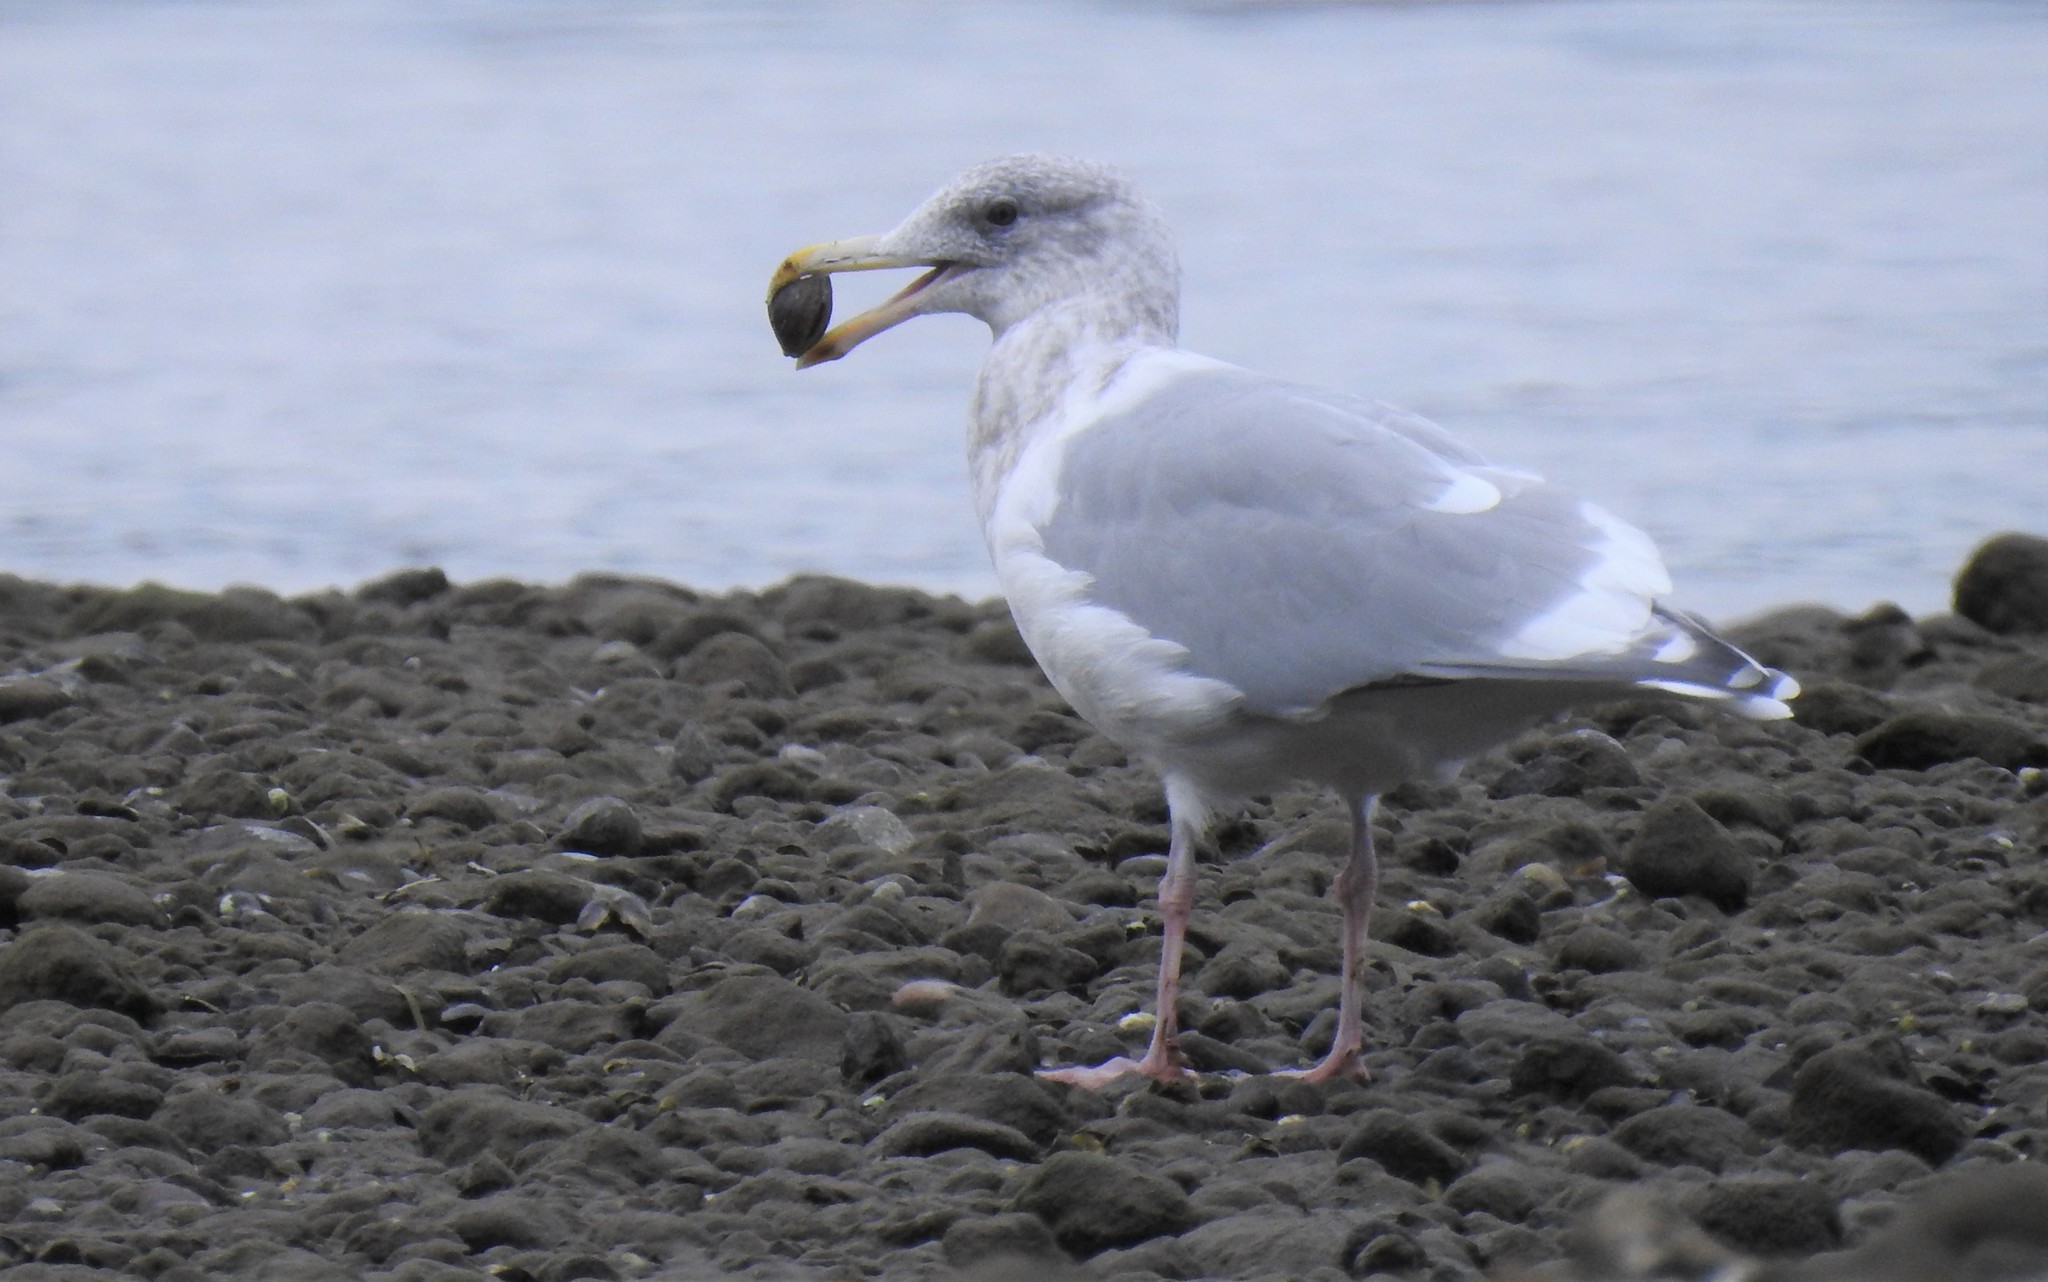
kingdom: Animalia
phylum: Chordata
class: Aves
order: Charadriiformes
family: Laridae
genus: Larus
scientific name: Larus
